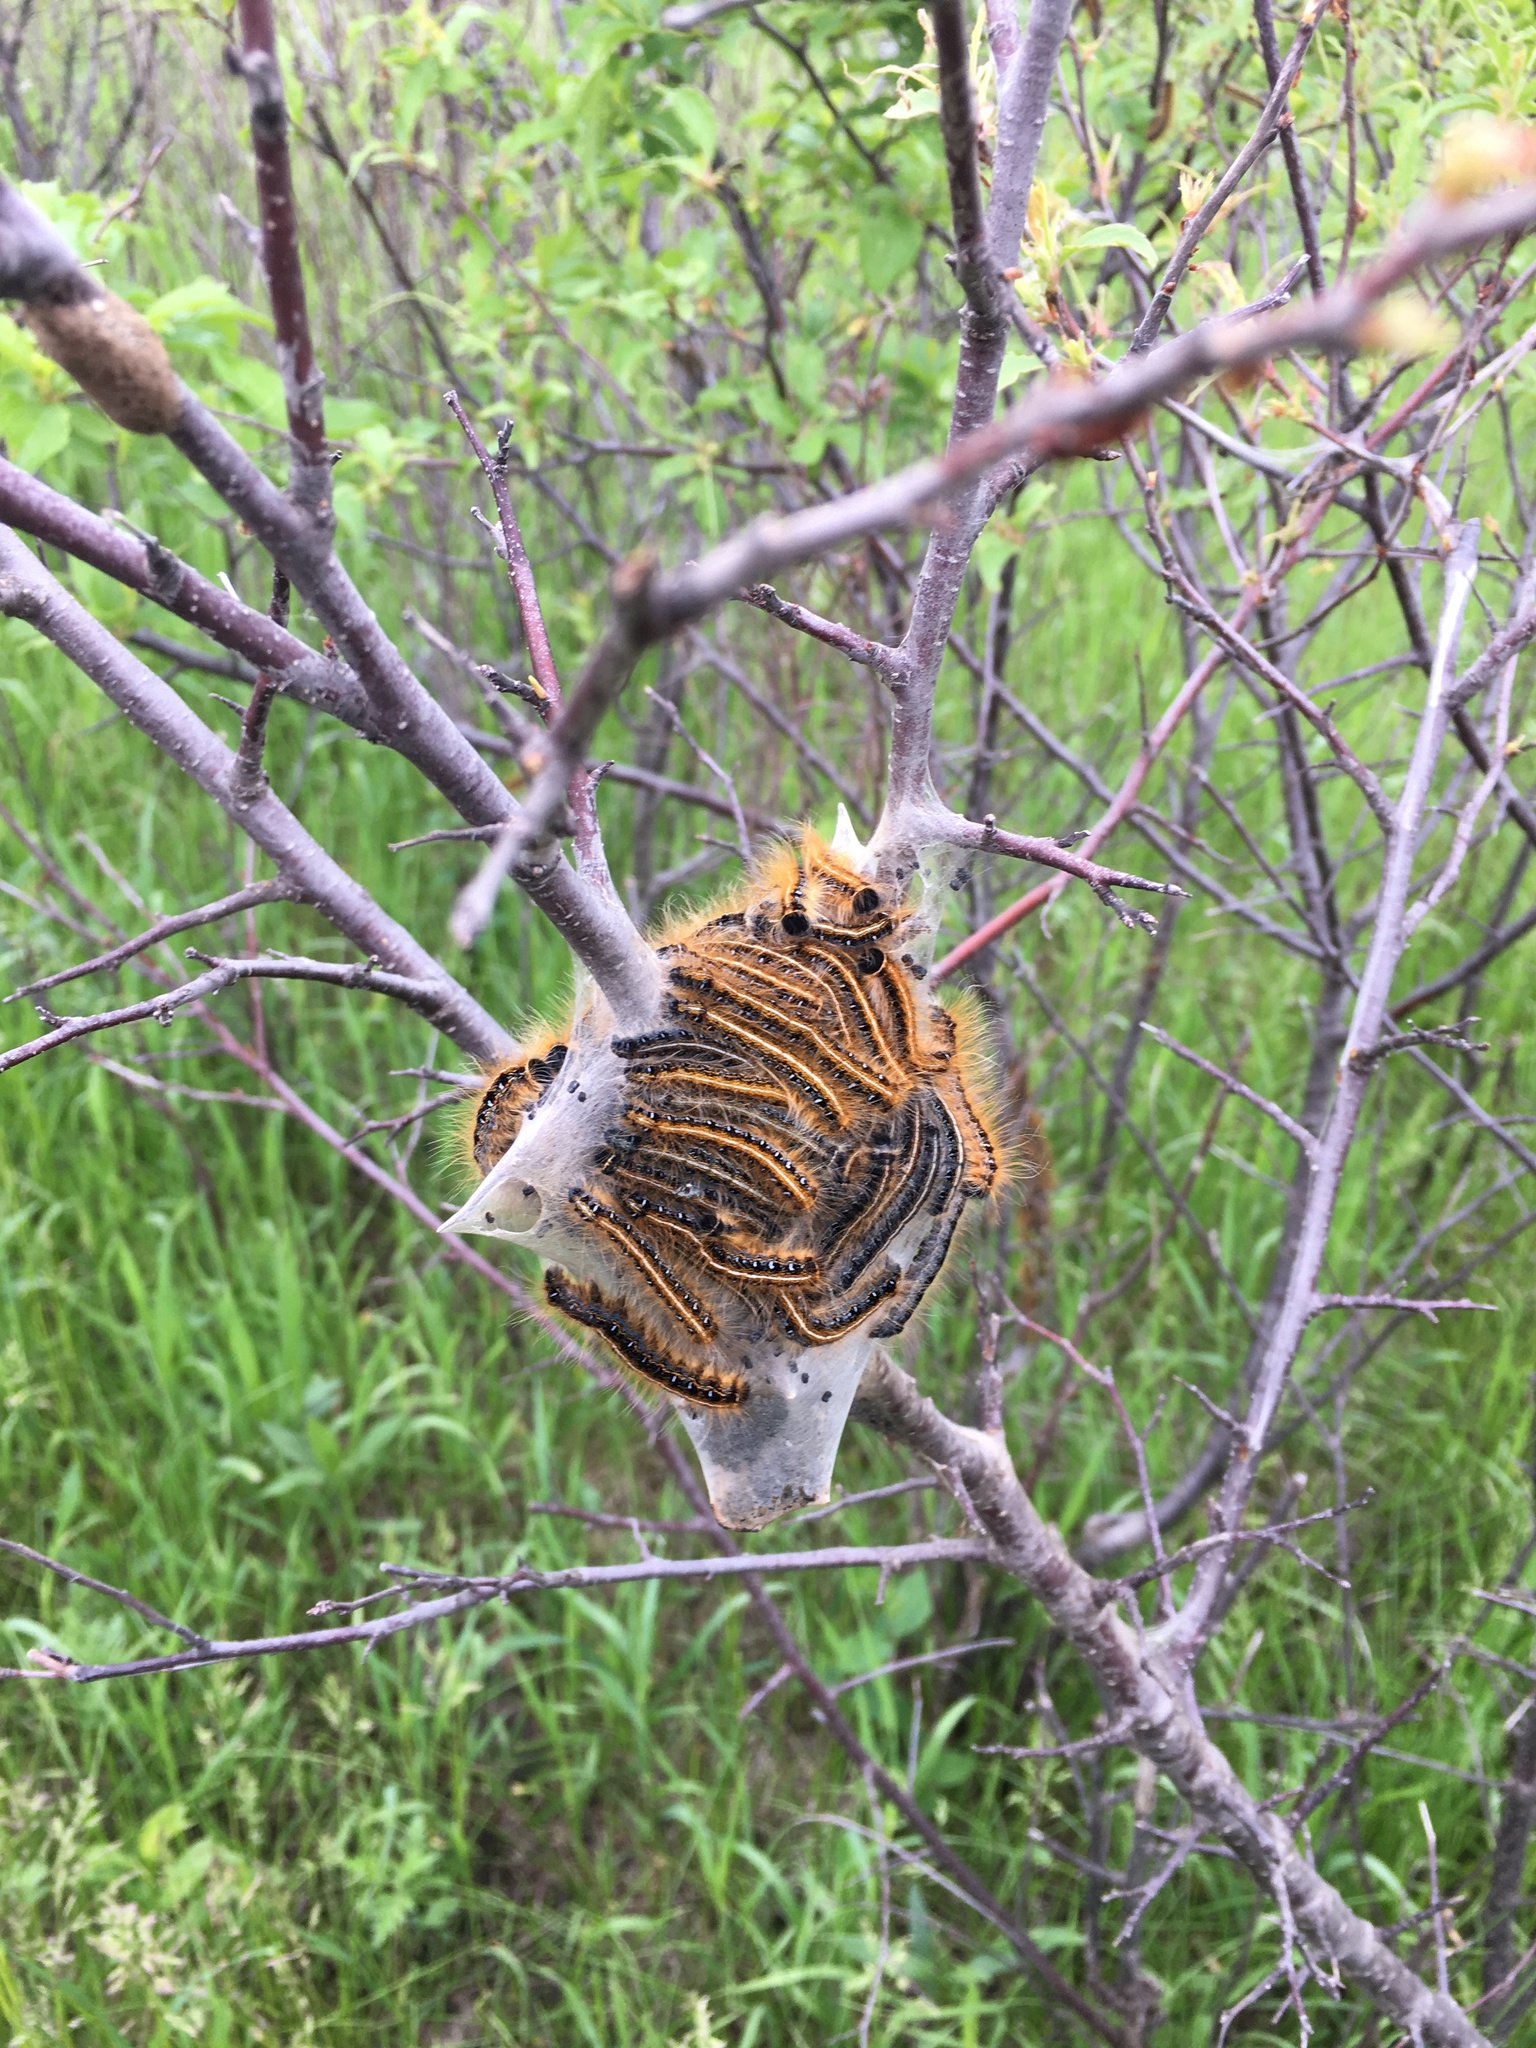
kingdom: Animalia
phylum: Arthropoda
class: Insecta
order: Lepidoptera
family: Lasiocampidae
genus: Malacosoma
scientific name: Malacosoma americana
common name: Eastern tent caterpillar moth
